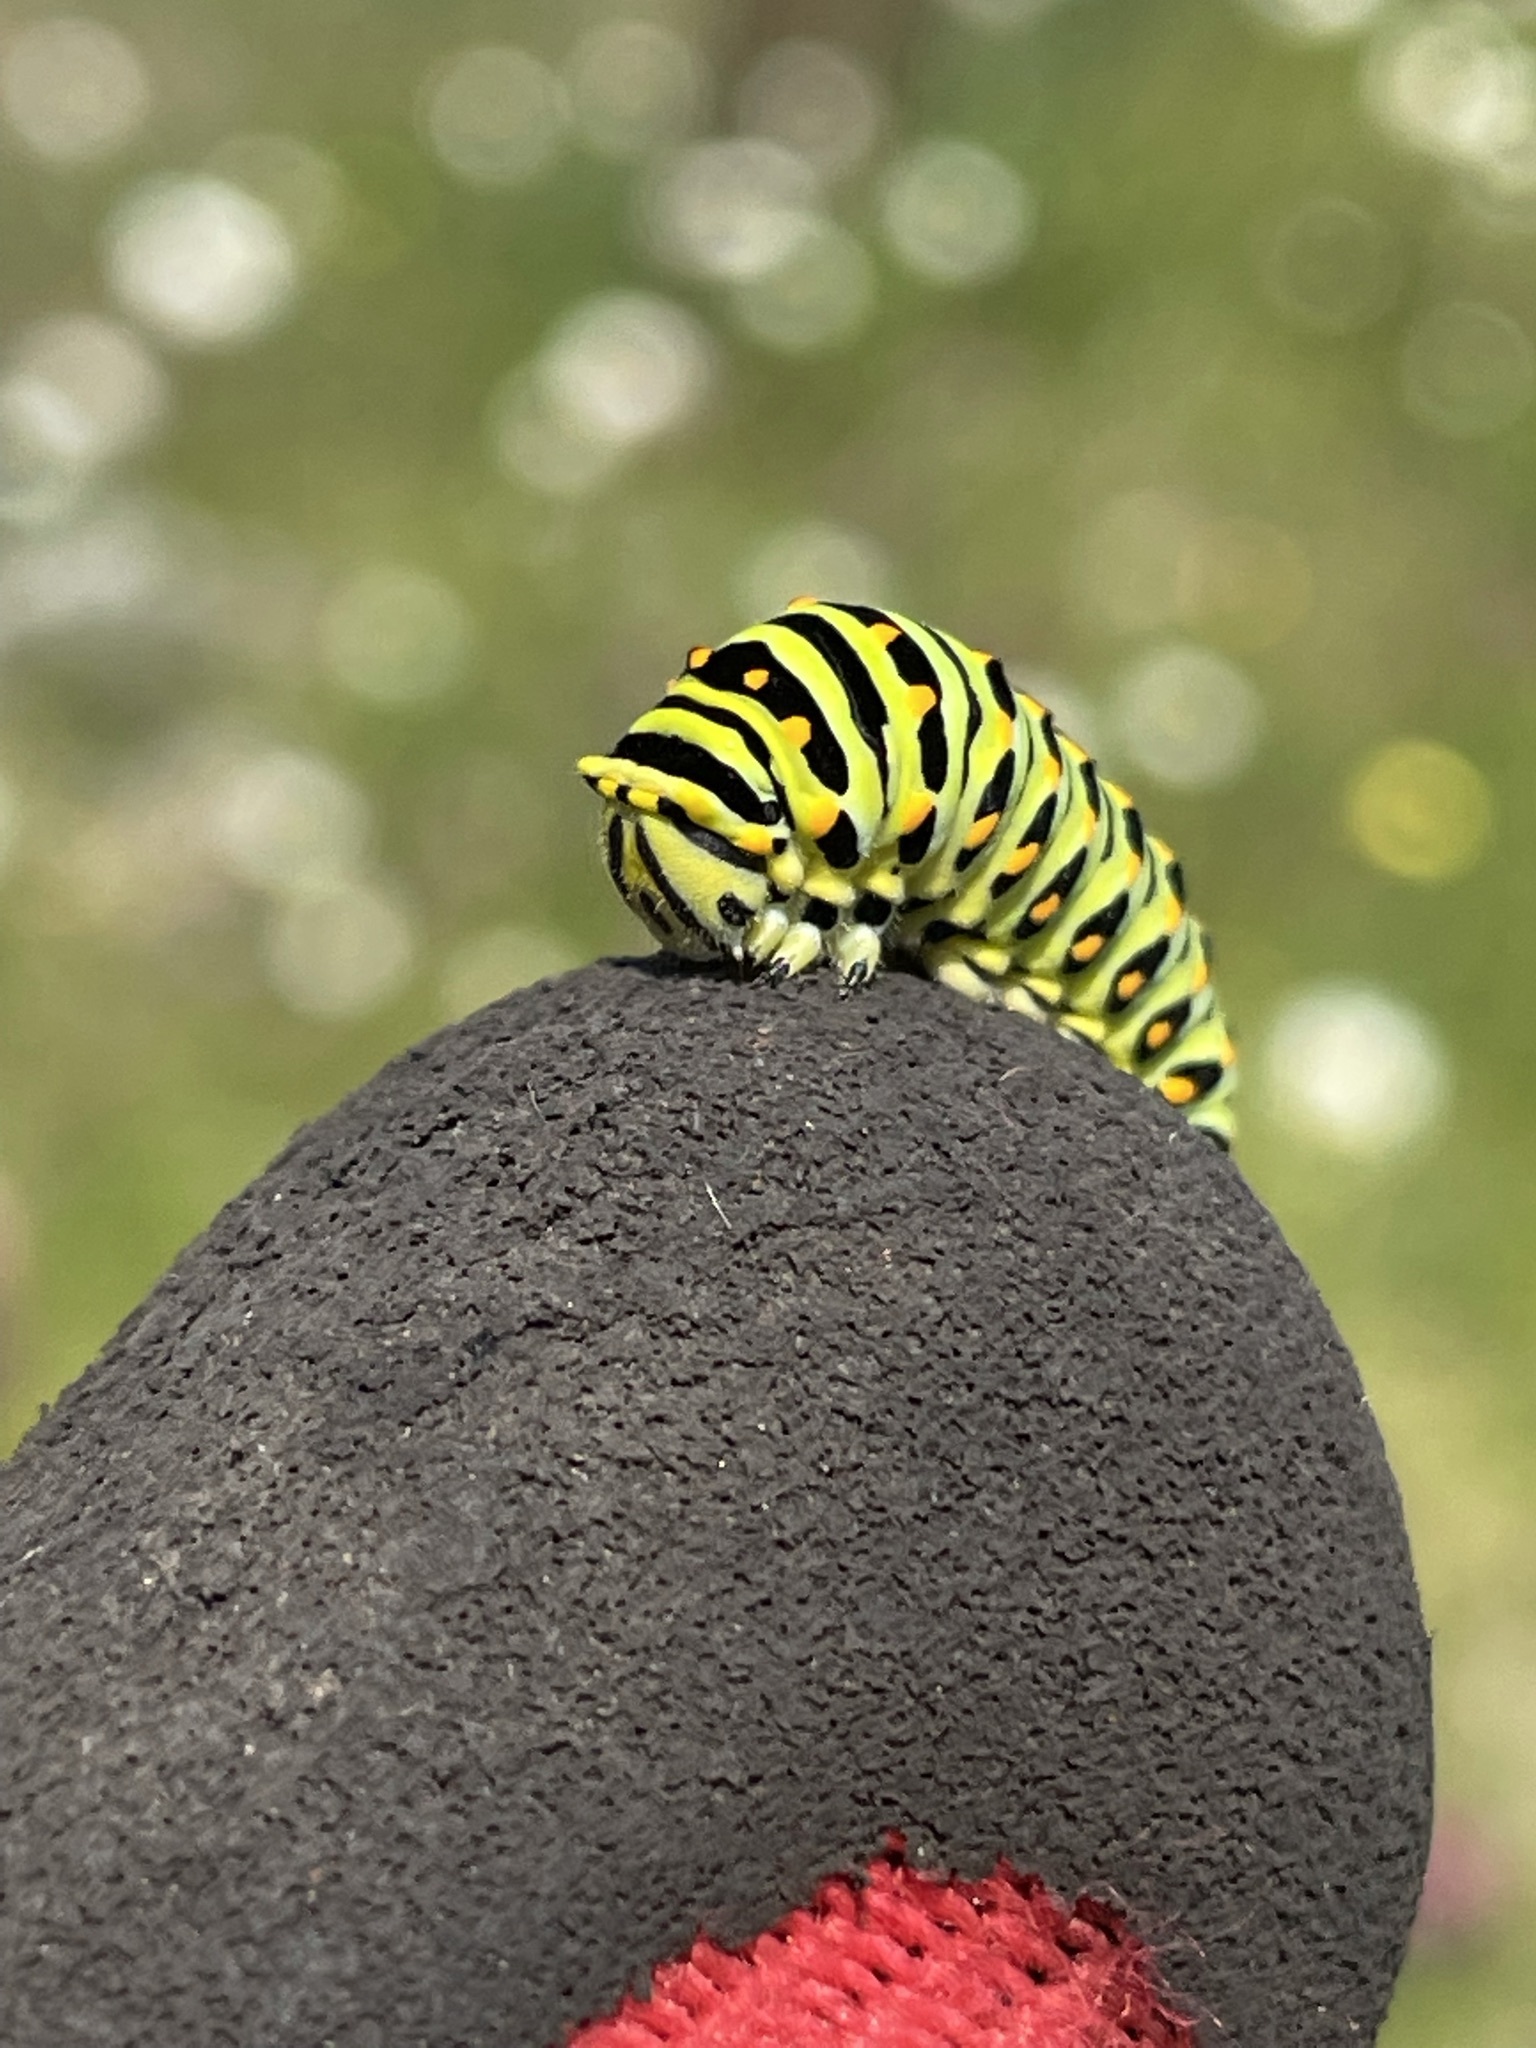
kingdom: Animalia
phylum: Arthropoda
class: Insecta
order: Lepidoptera
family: Papilionidae
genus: Papilio
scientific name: Papilio zelicaon
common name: Anise swallowtail
